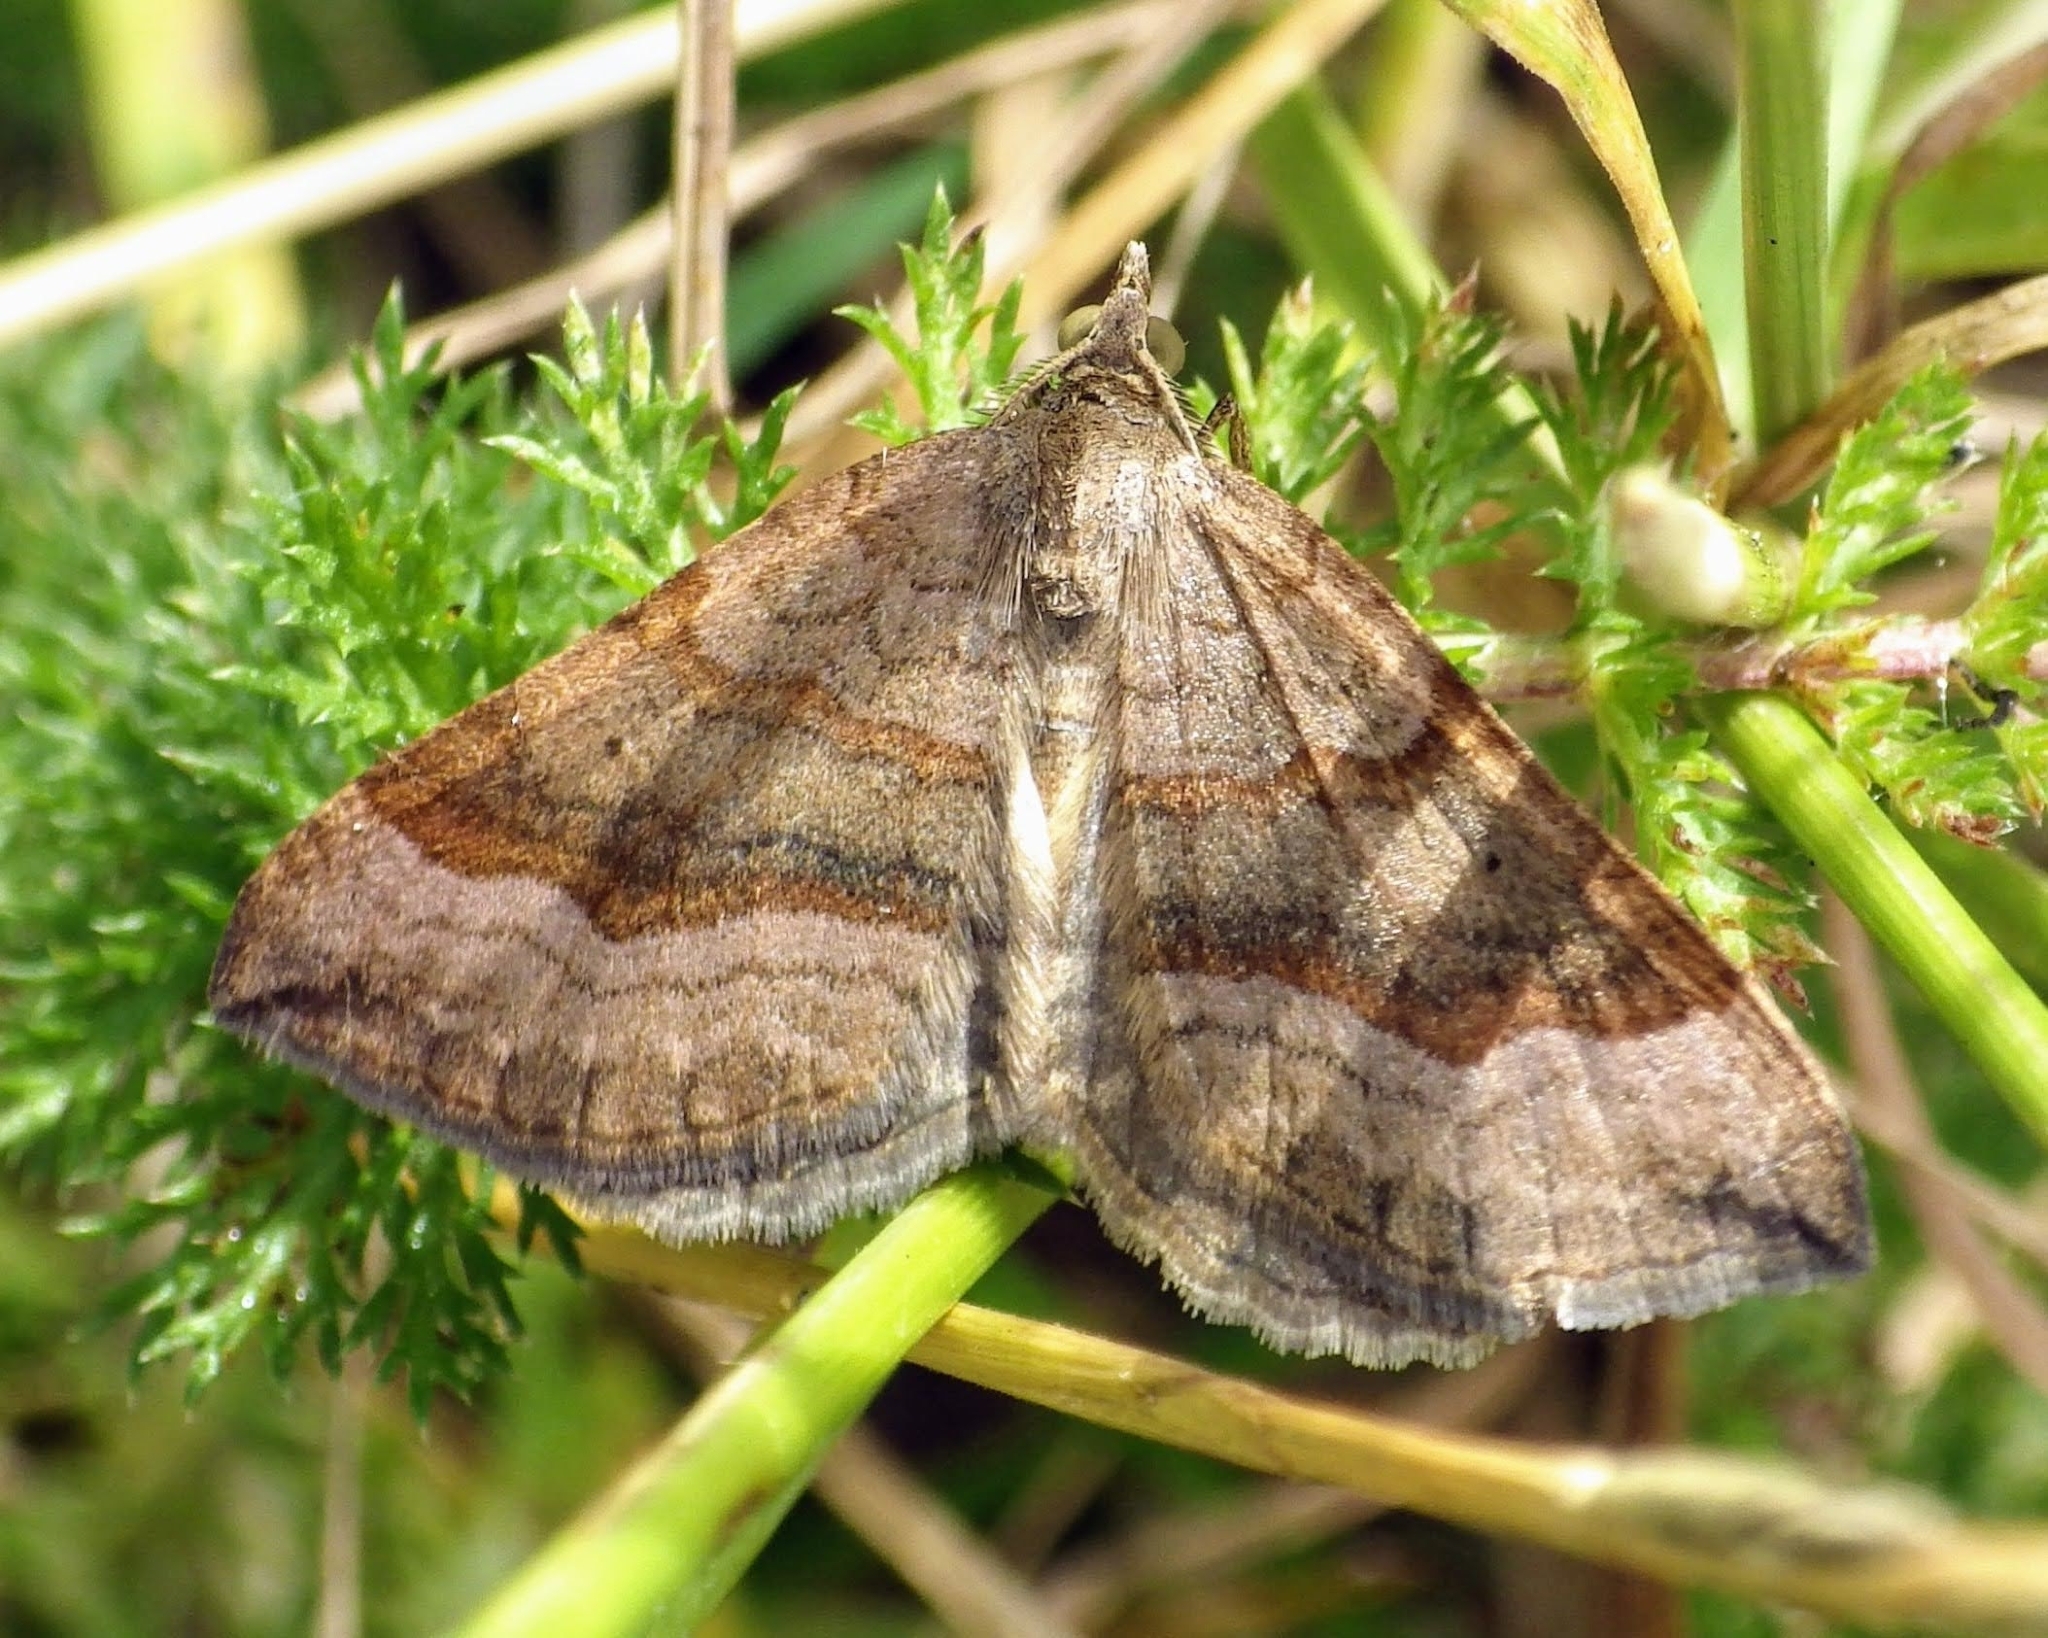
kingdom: Animalia
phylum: Arthropoda
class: Insecta
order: Lepidoptera
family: Geometridae
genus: Scotopteryx
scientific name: Scotopteryx chenopodiata
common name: Shaded broad-bar
